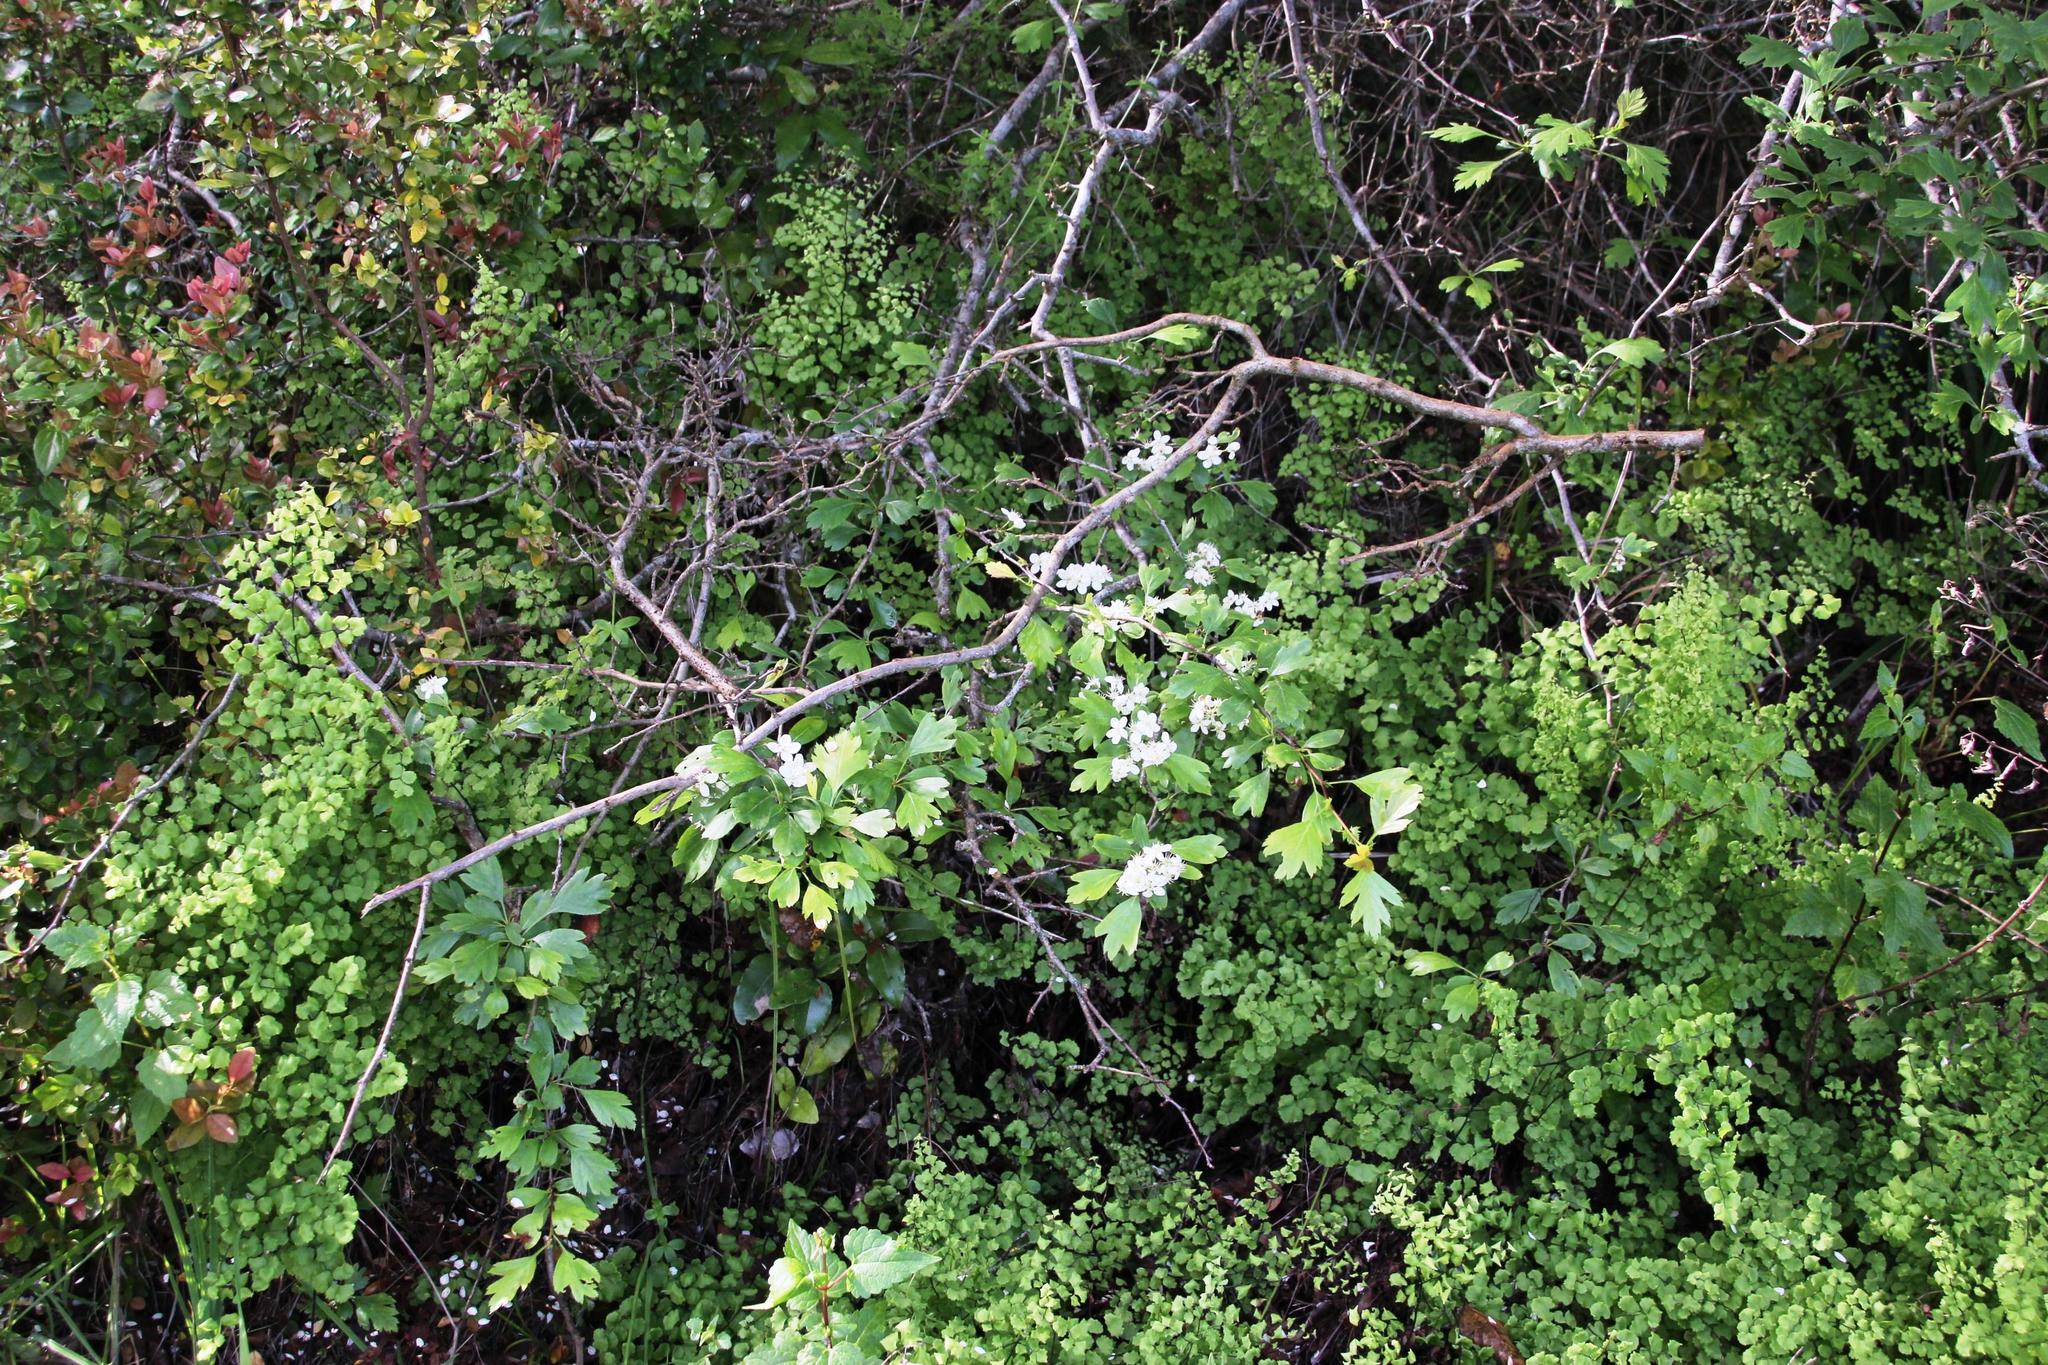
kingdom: Plantae
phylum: Tracheophyta
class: Magnoliopsida
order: Rosales
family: Rosaceae
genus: Crataegus
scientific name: Crataegus monogyna
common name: Hawthorn
